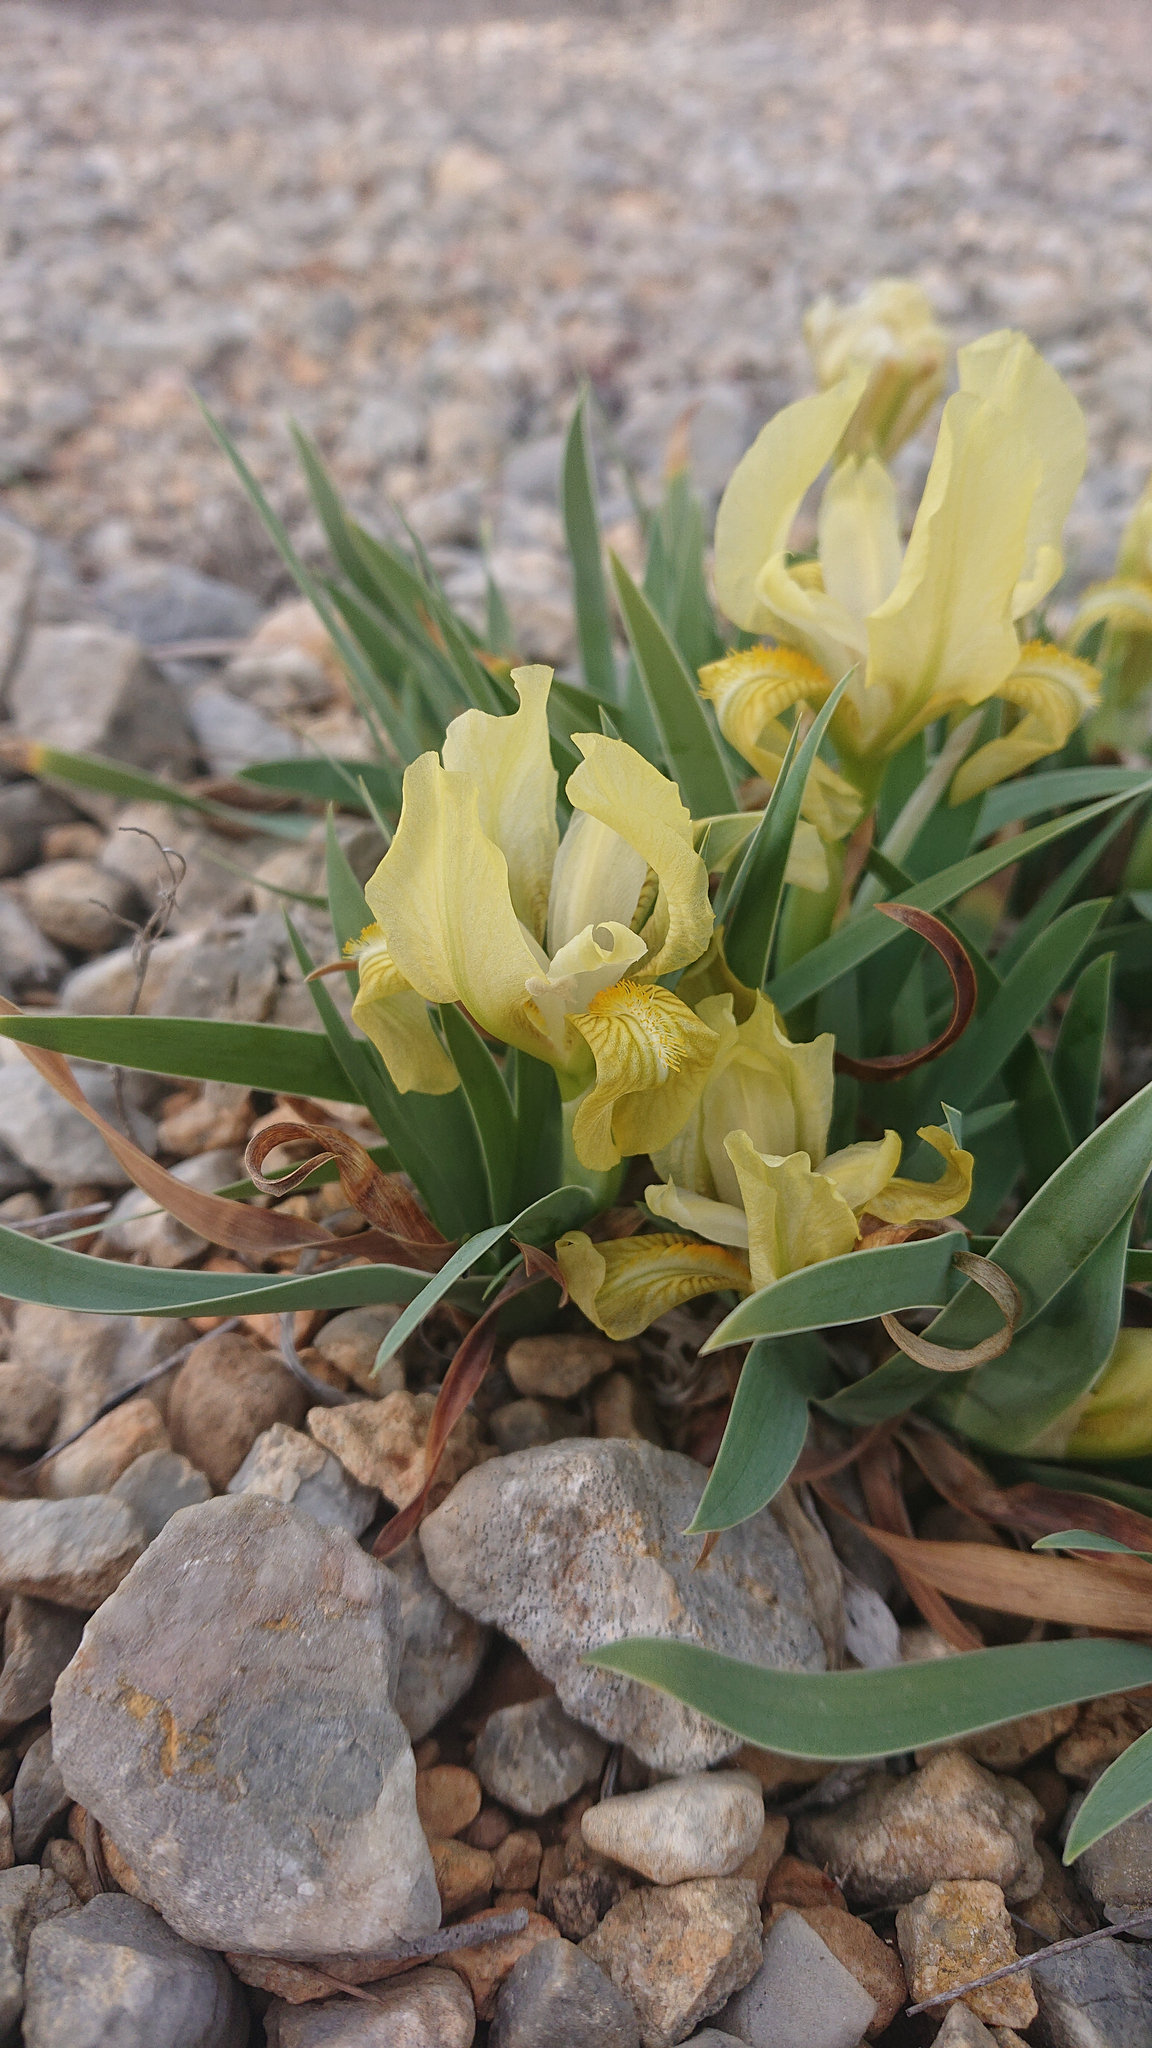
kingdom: Plantae
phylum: Tracheophyta
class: Liliopsida
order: Asparagales
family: Iridaceae
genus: Iris
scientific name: Iris lutescens
